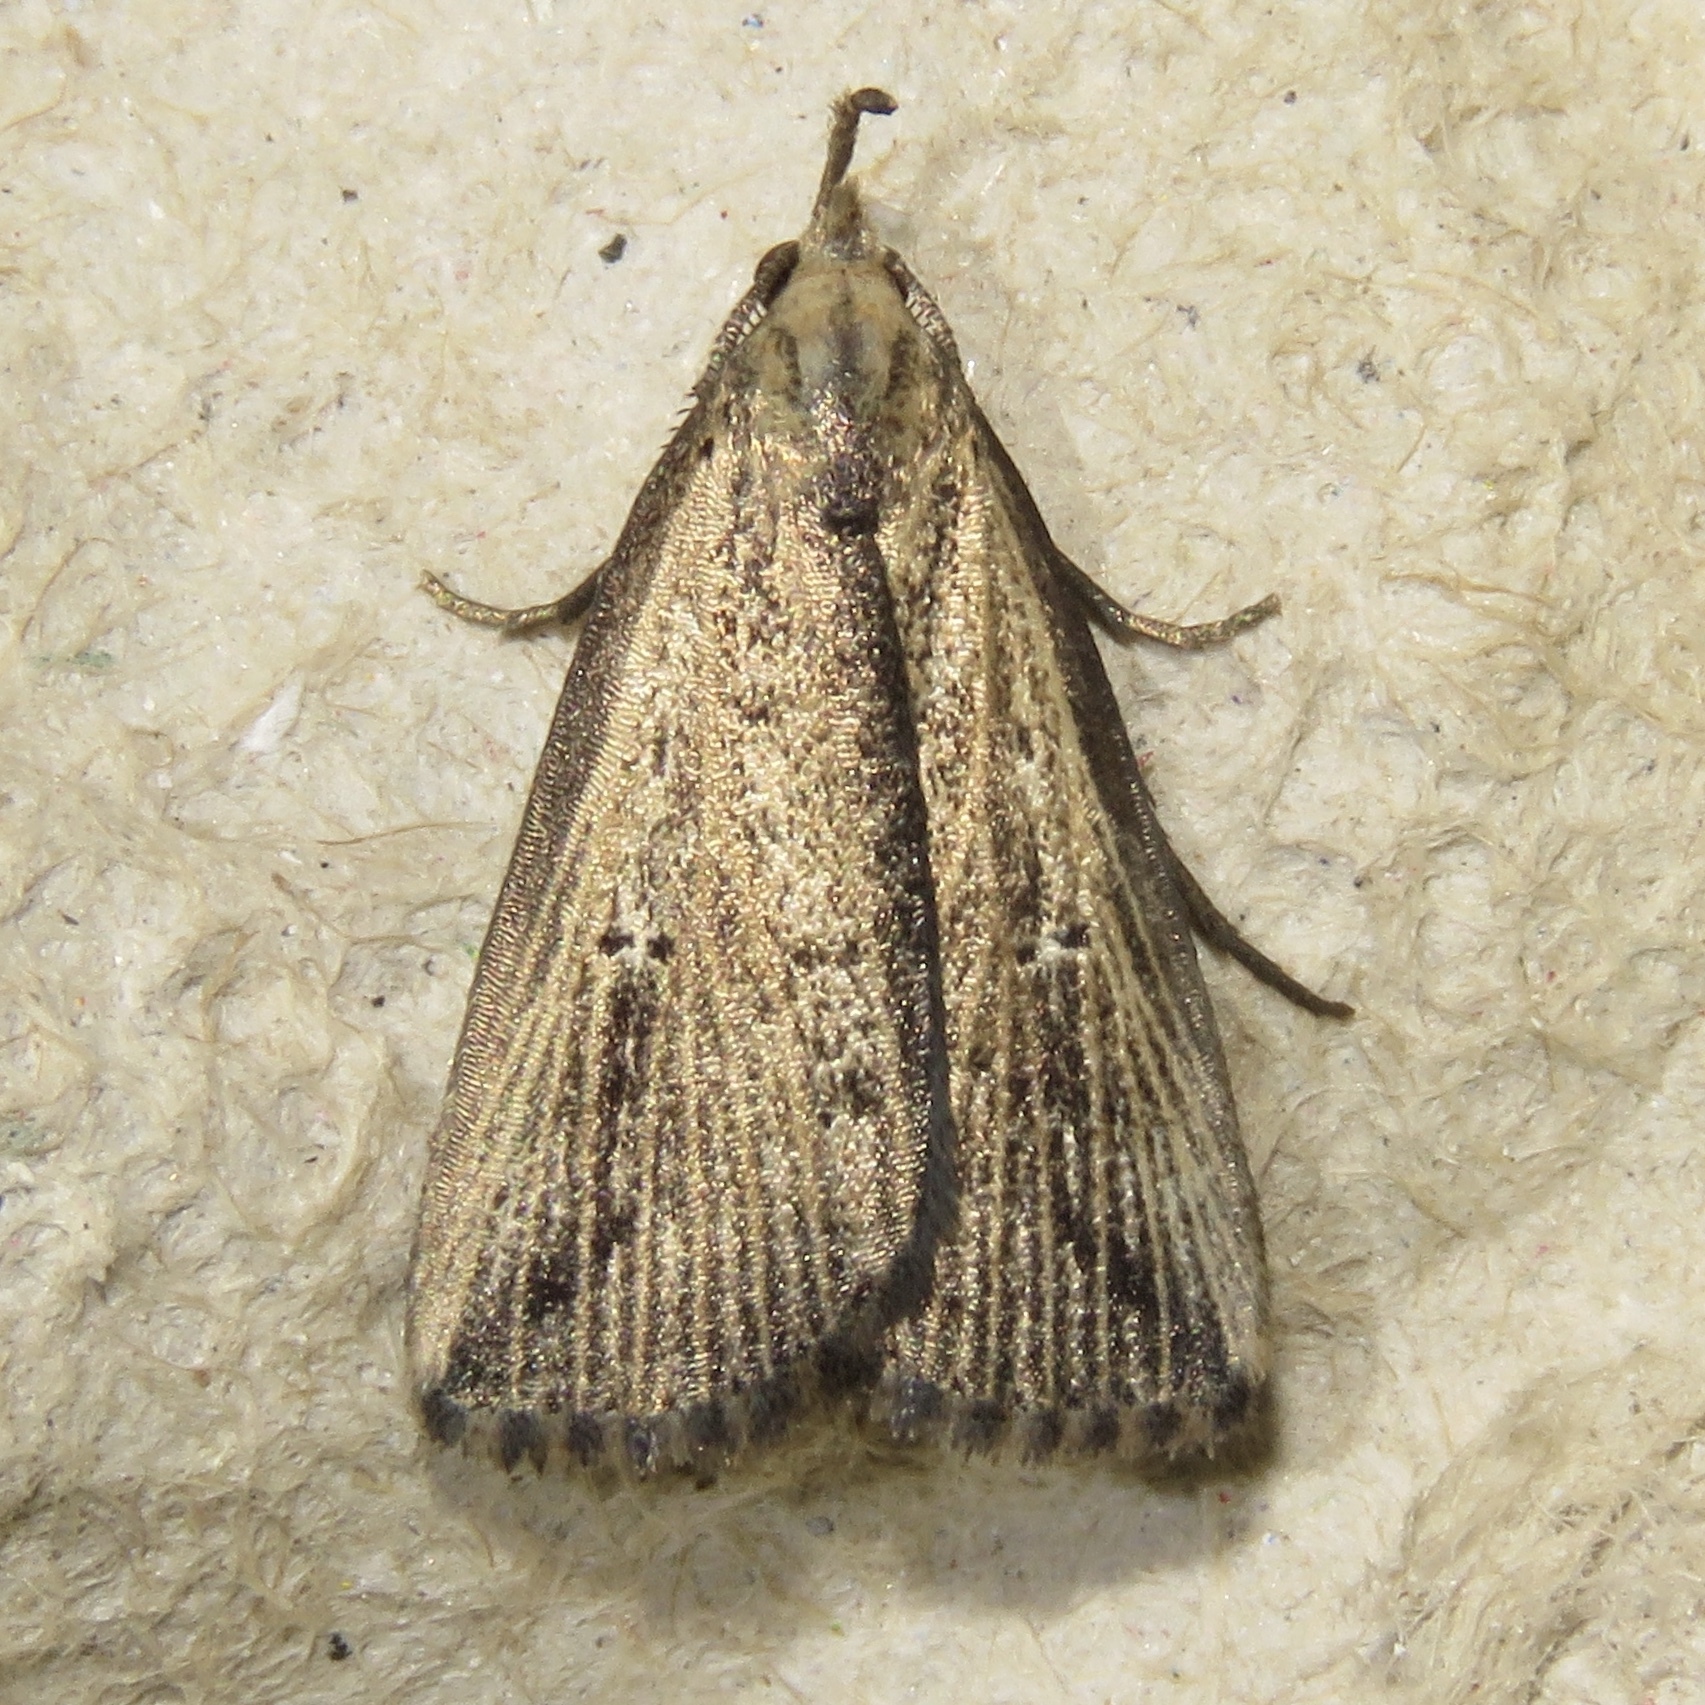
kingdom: Animalia
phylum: Arthropoda
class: Insecta
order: Lepidoptera
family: Erebidae
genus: Macrochilo
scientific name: Macrochilo orciferalis
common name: Bronzy owlet
